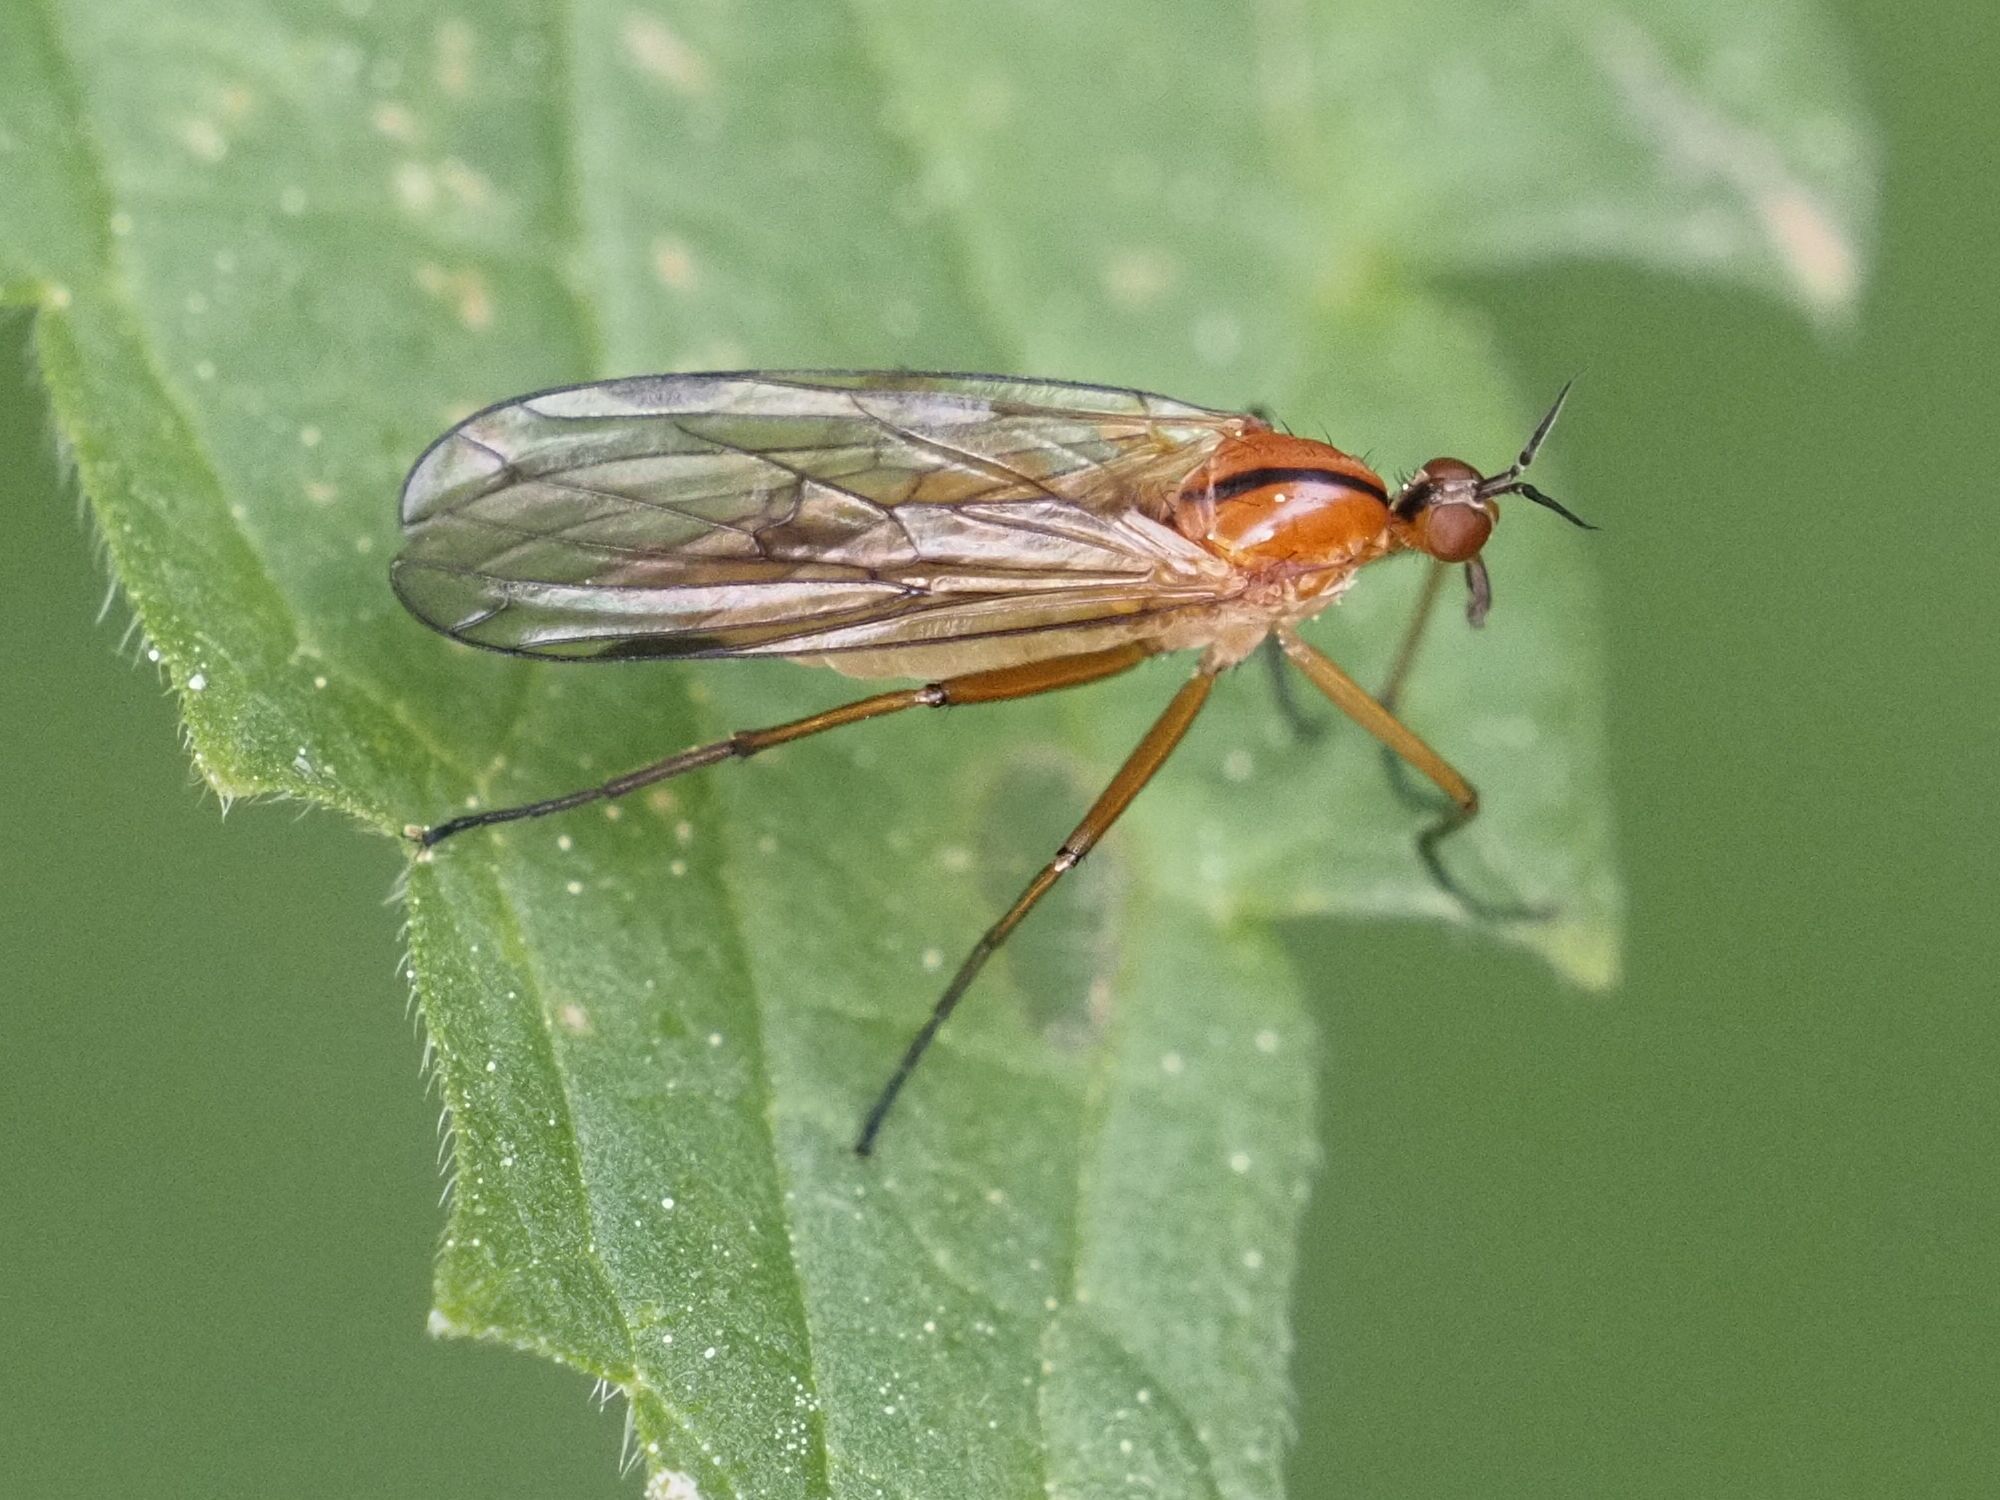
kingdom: Animalia
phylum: Arthropoda
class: Insecta
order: Diptera
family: Empididae
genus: Empis
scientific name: Empis stercorea
